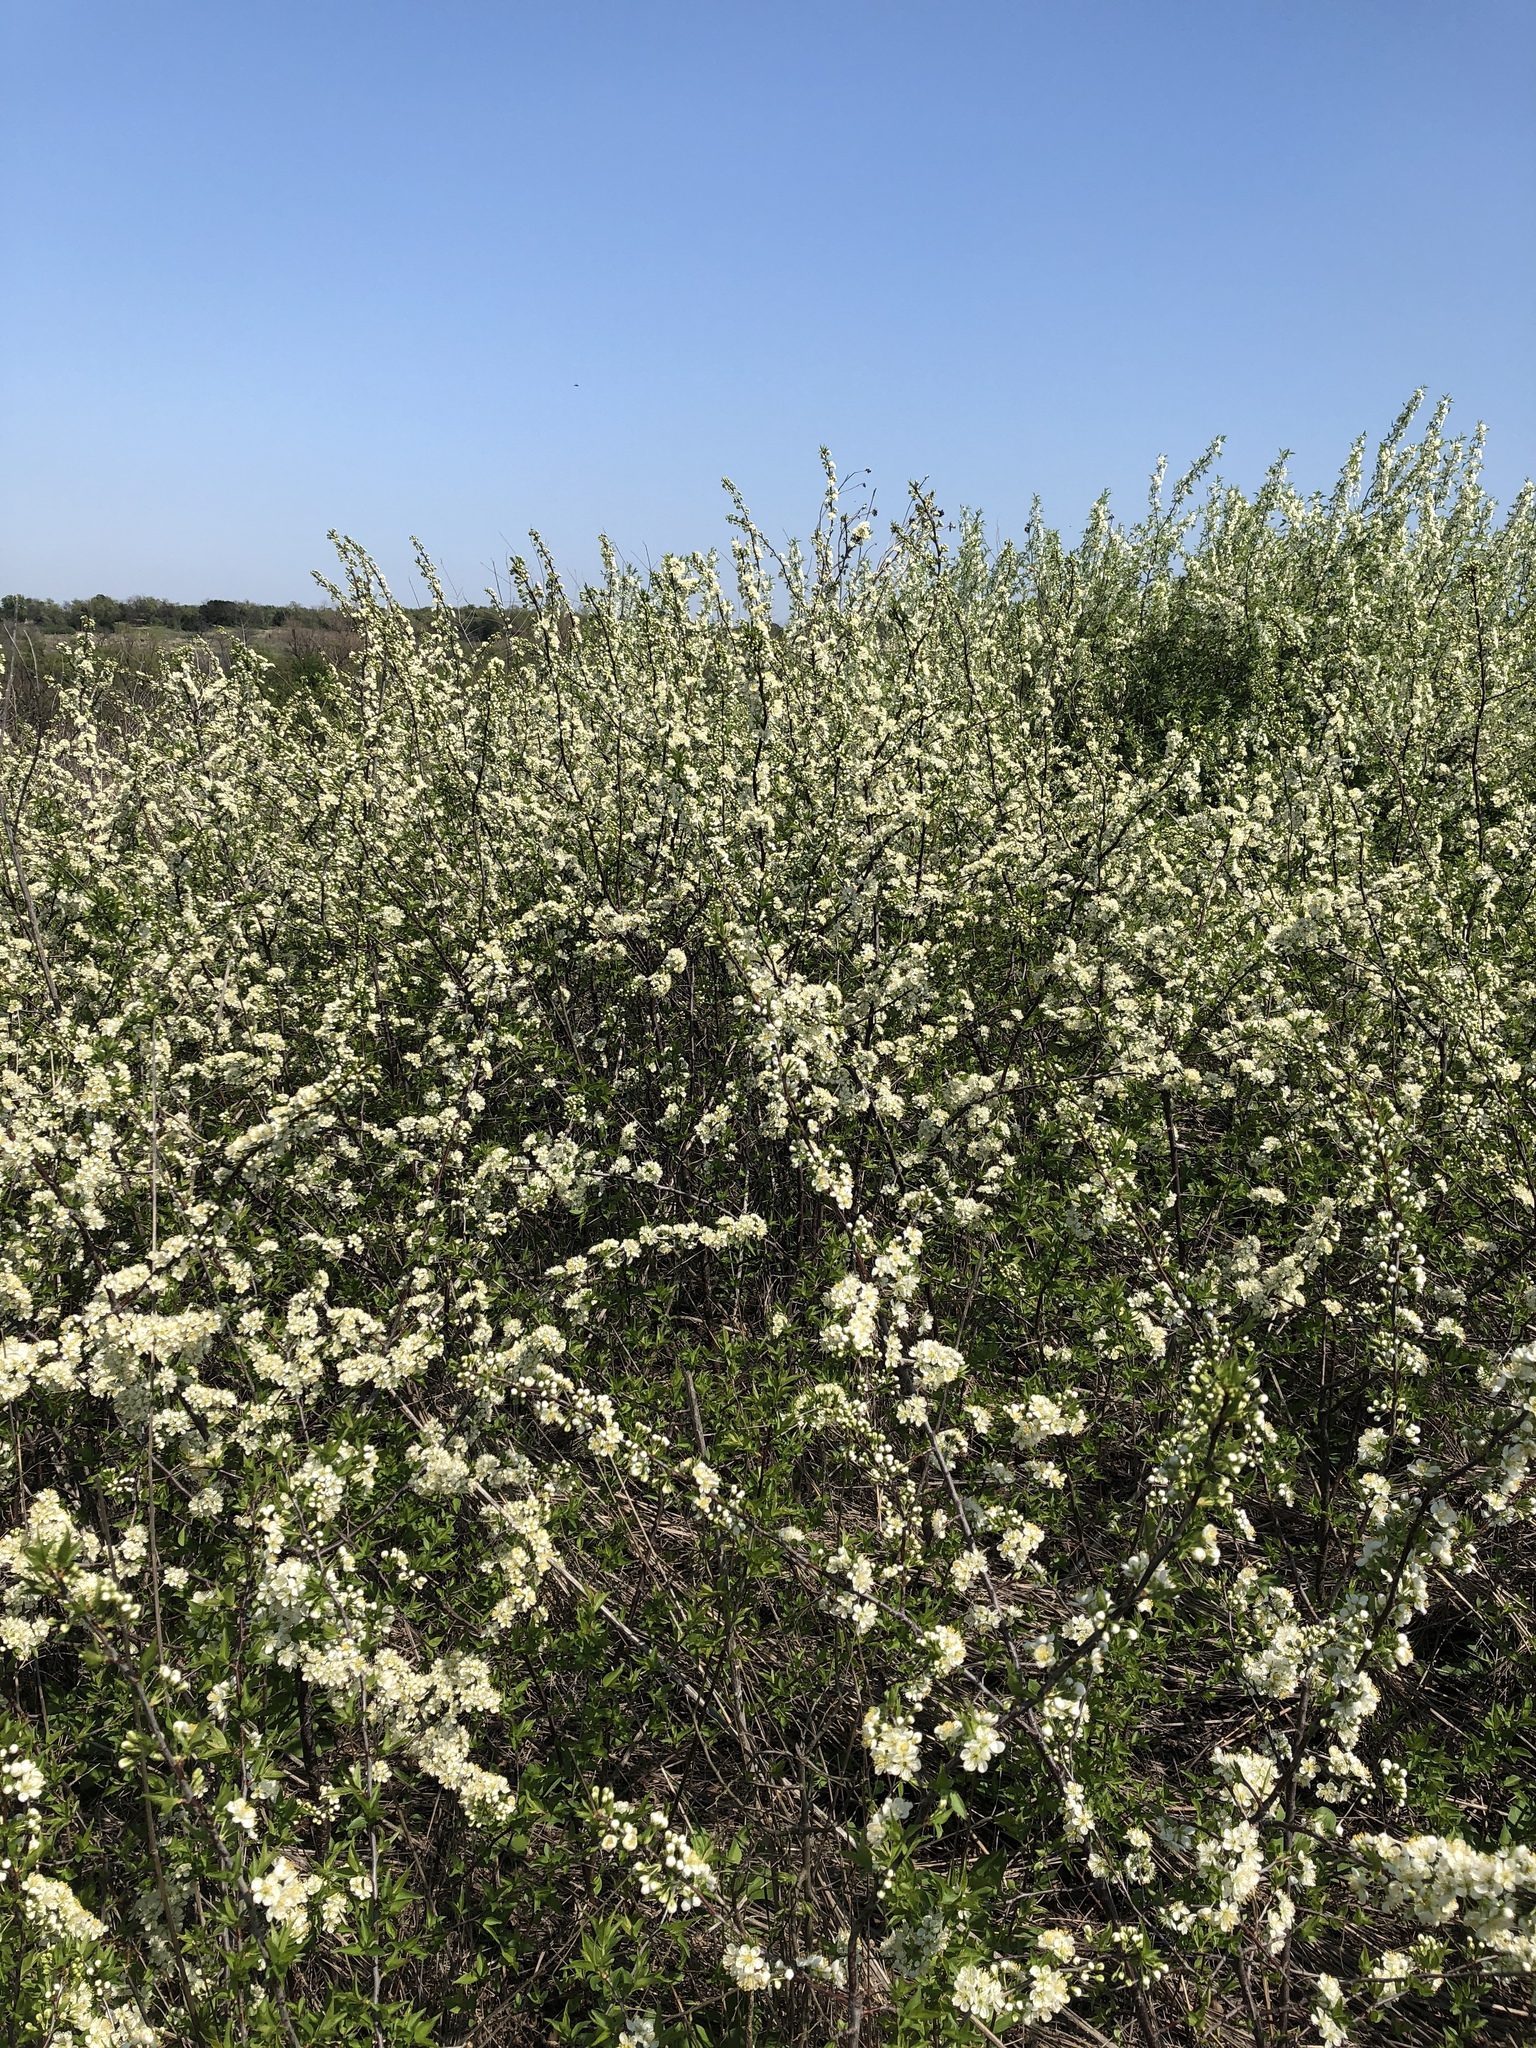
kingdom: Plantae
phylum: Tracheophyta
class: Magnoliopsida
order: Rosales
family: Rosaceae
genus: Prunus
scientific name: Prunus rivularis
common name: Creek plum
